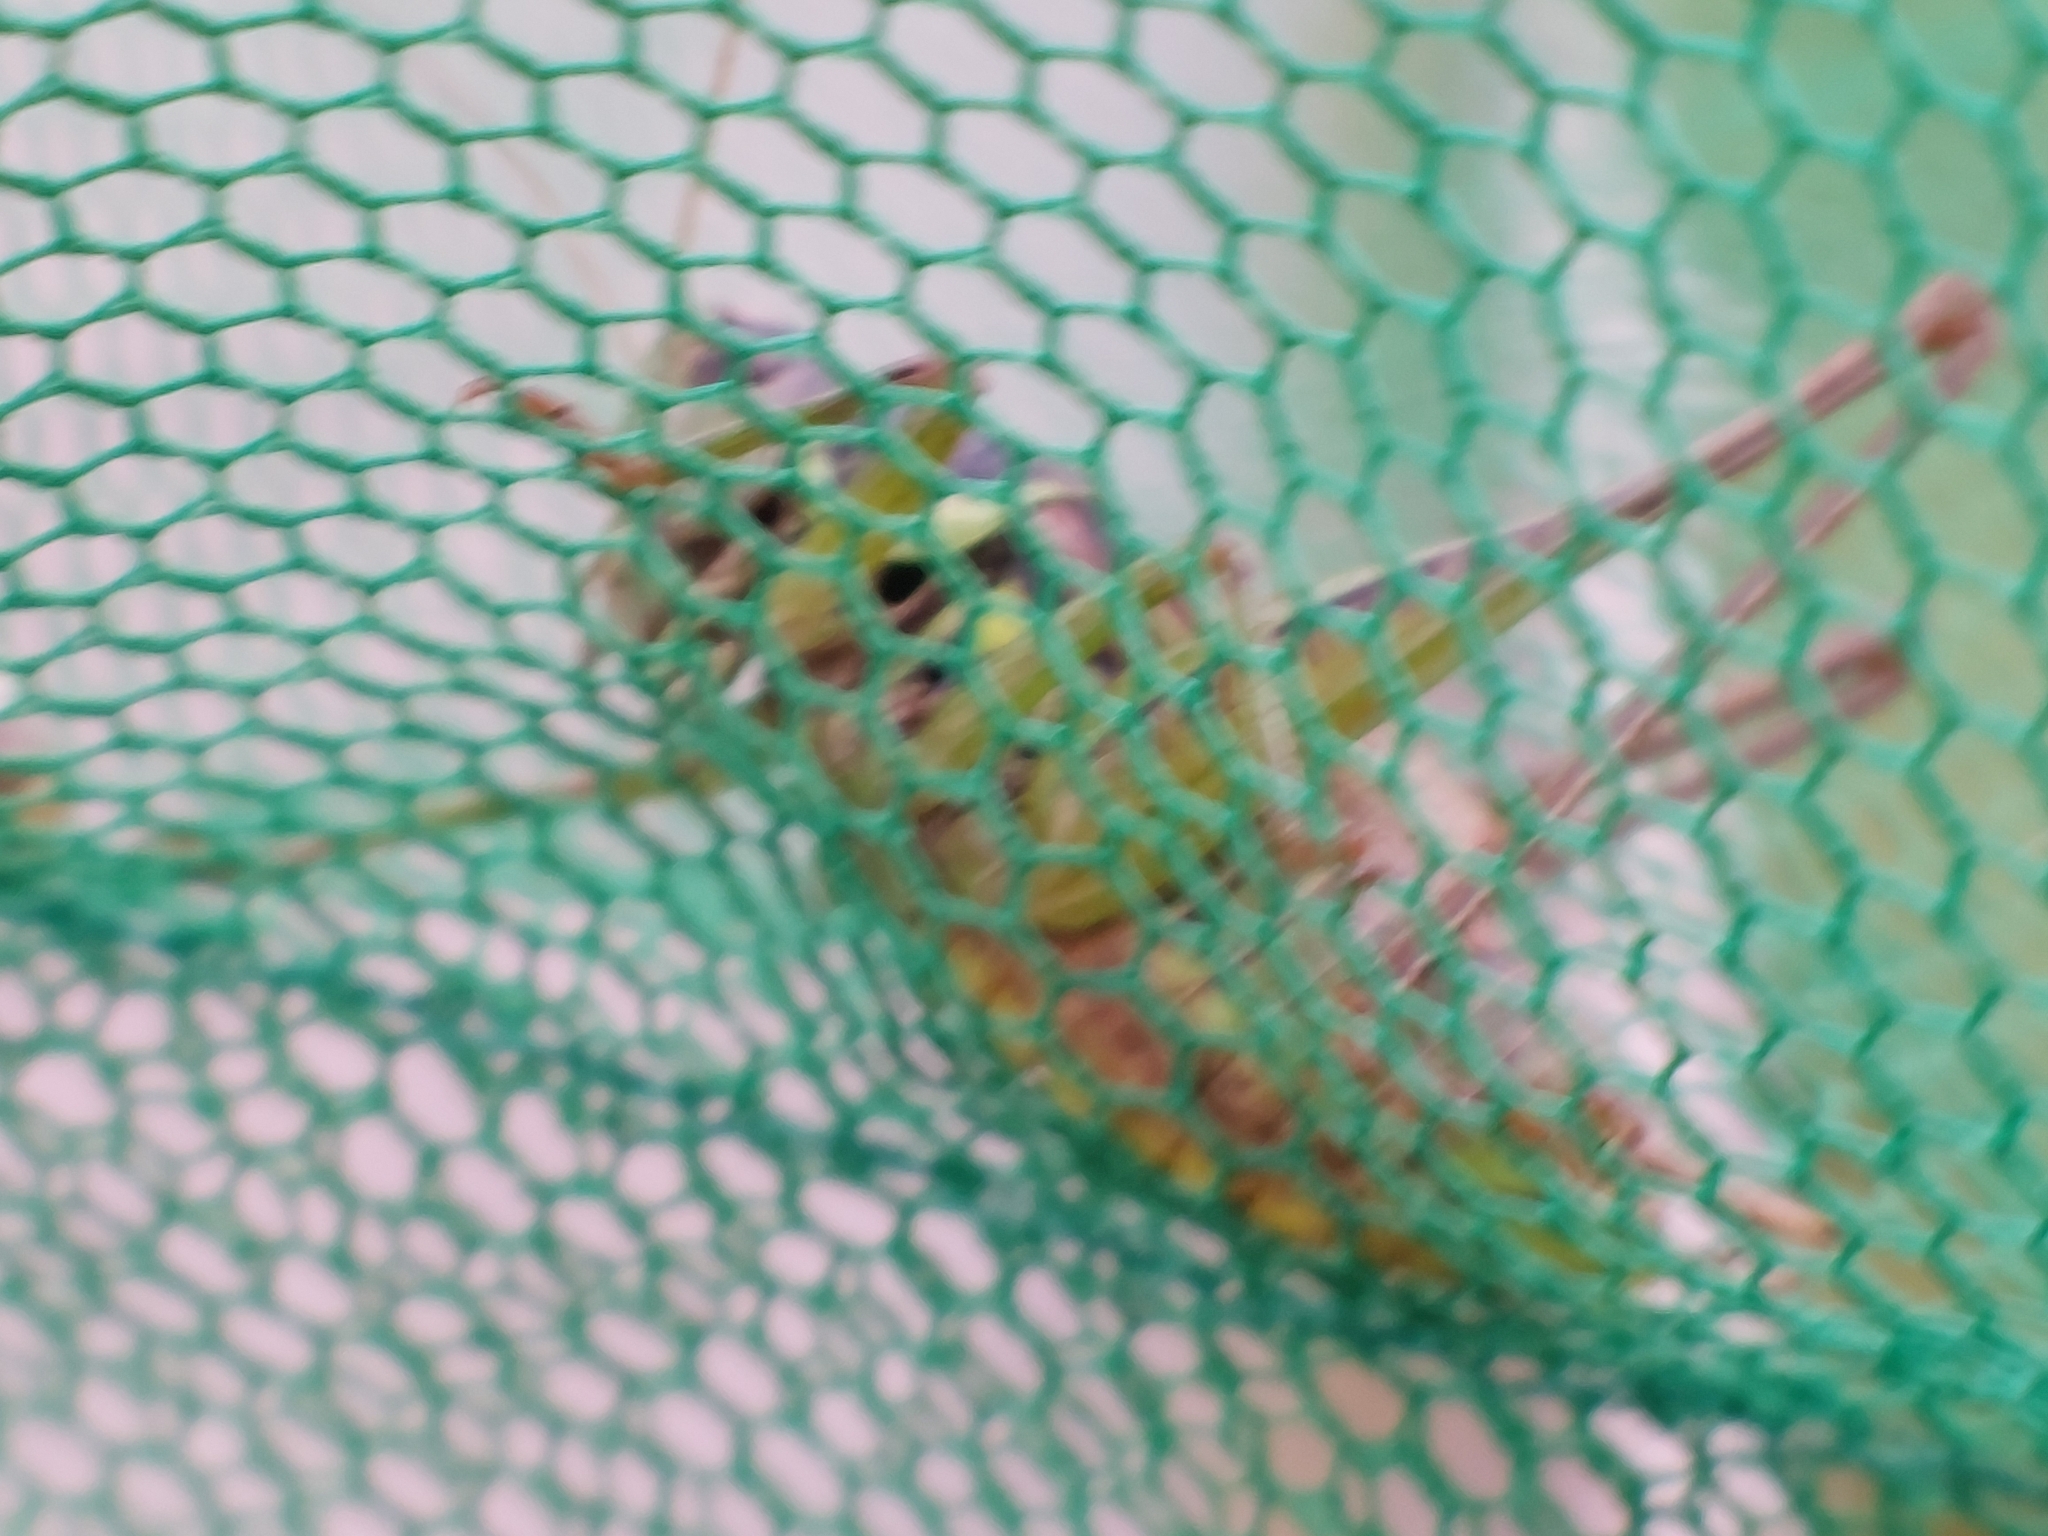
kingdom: Animalia
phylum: Arthropoda
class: Insecta
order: Orthoptera
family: Tettigoniidae
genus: Roeseliana
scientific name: Roeseliana roeselii
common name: Roesel's bush cricket
